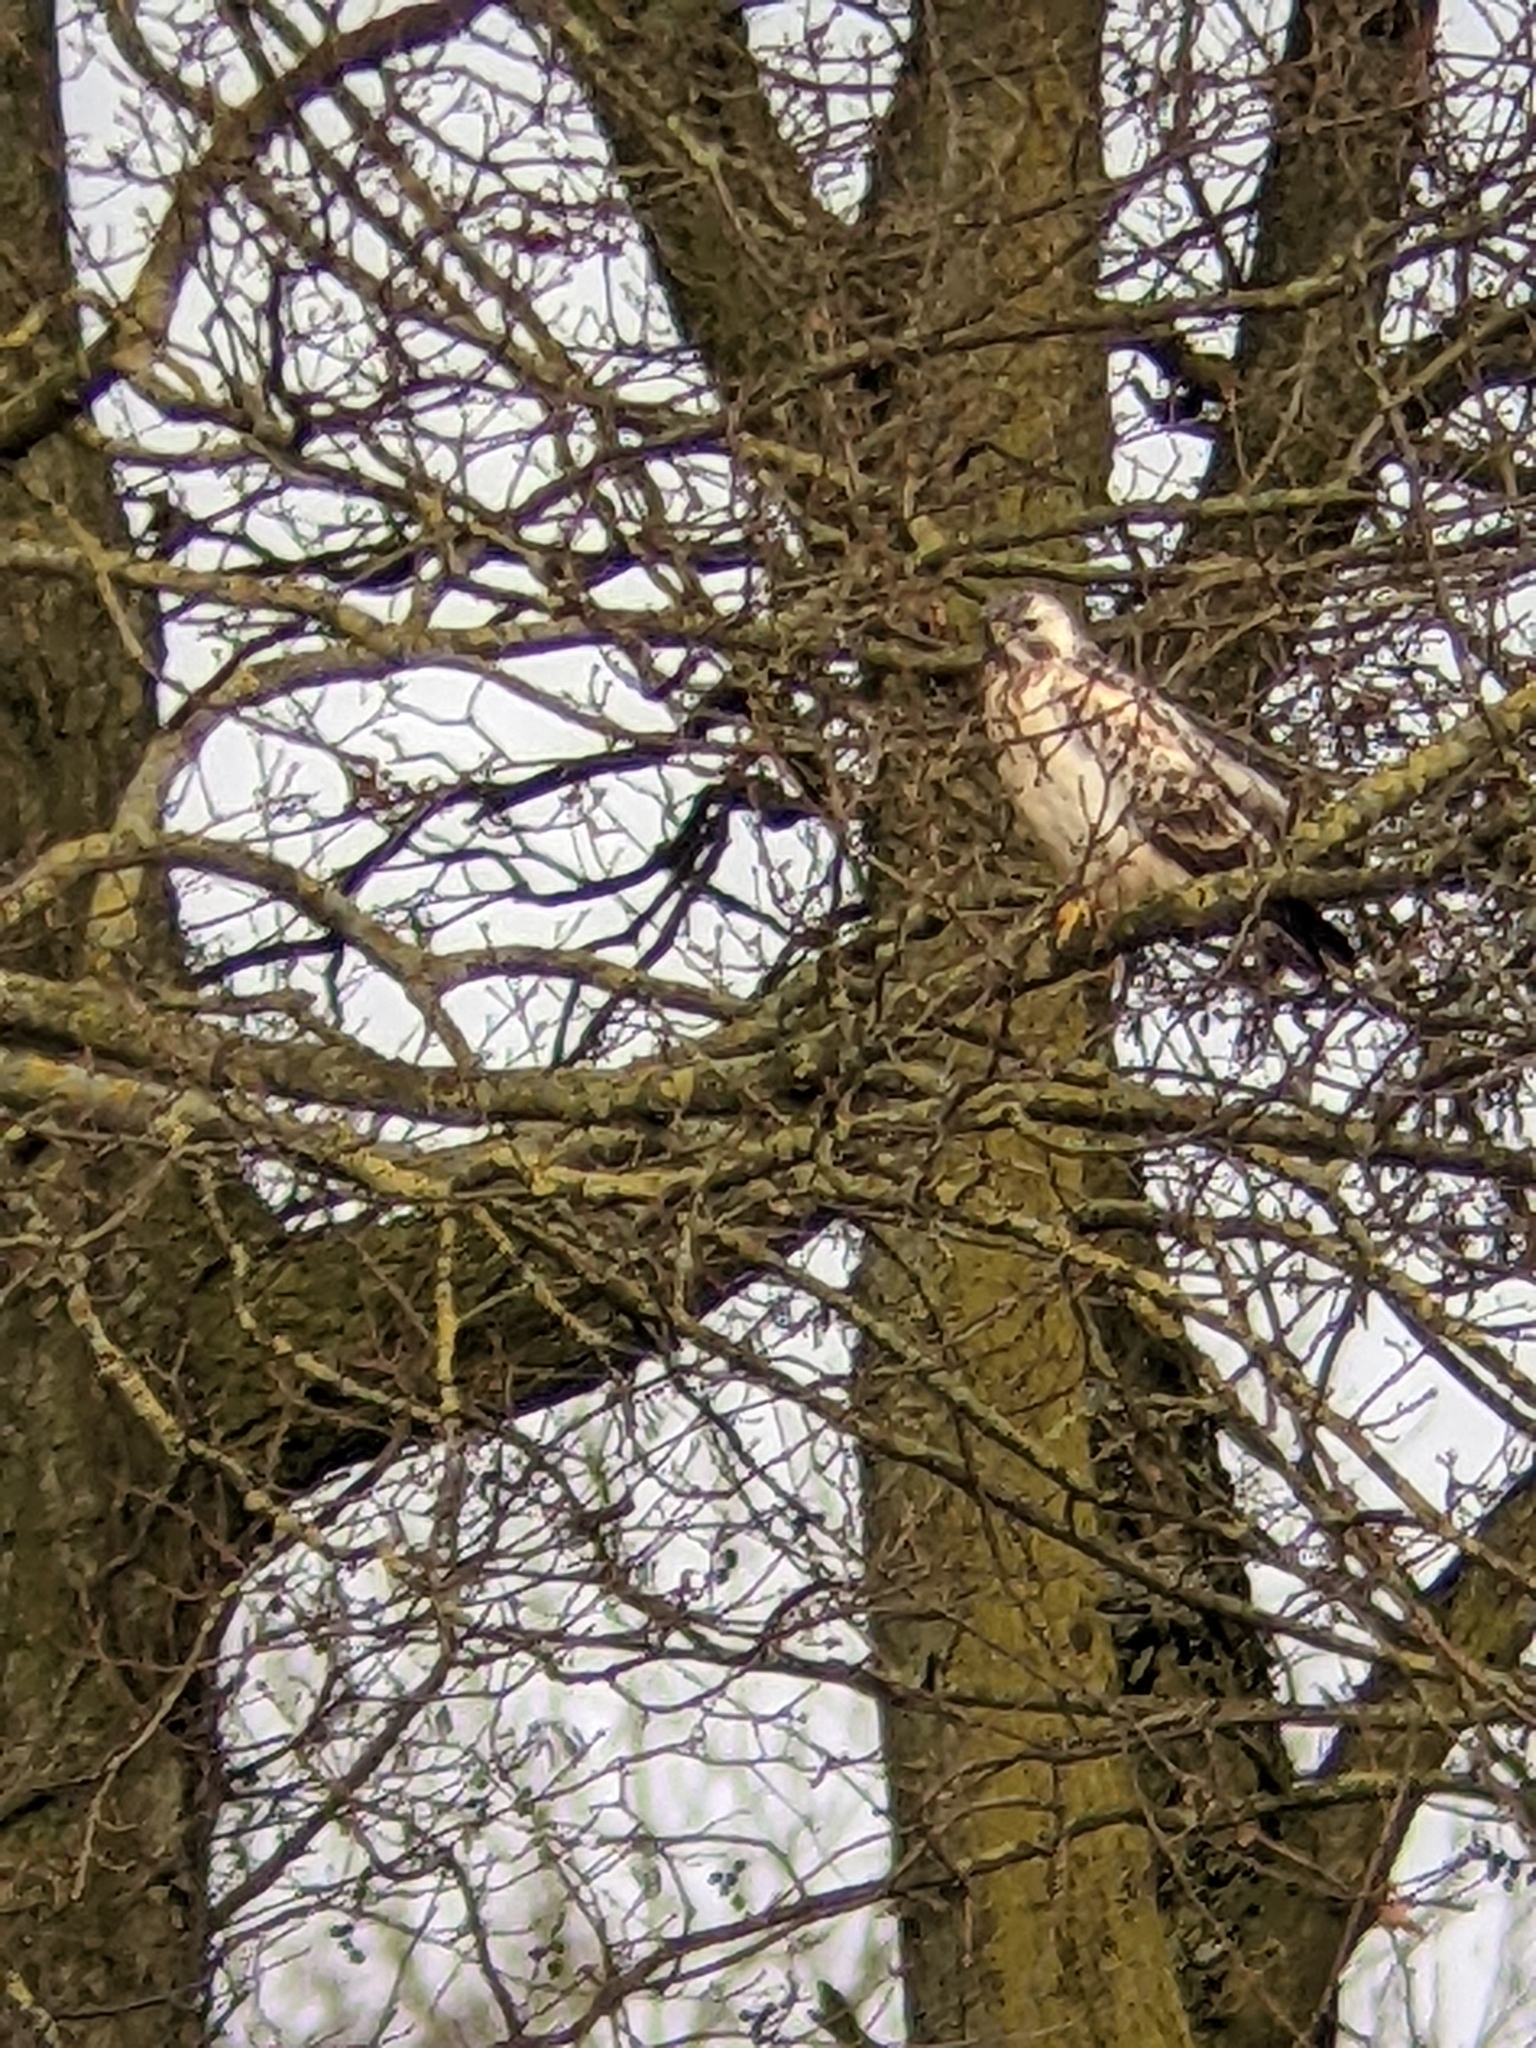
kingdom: Animalia
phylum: Chordata
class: Aves
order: Accipitriformes
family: Accipitridae
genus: Buteo
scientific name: Buteo buteo
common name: Common buzzard
